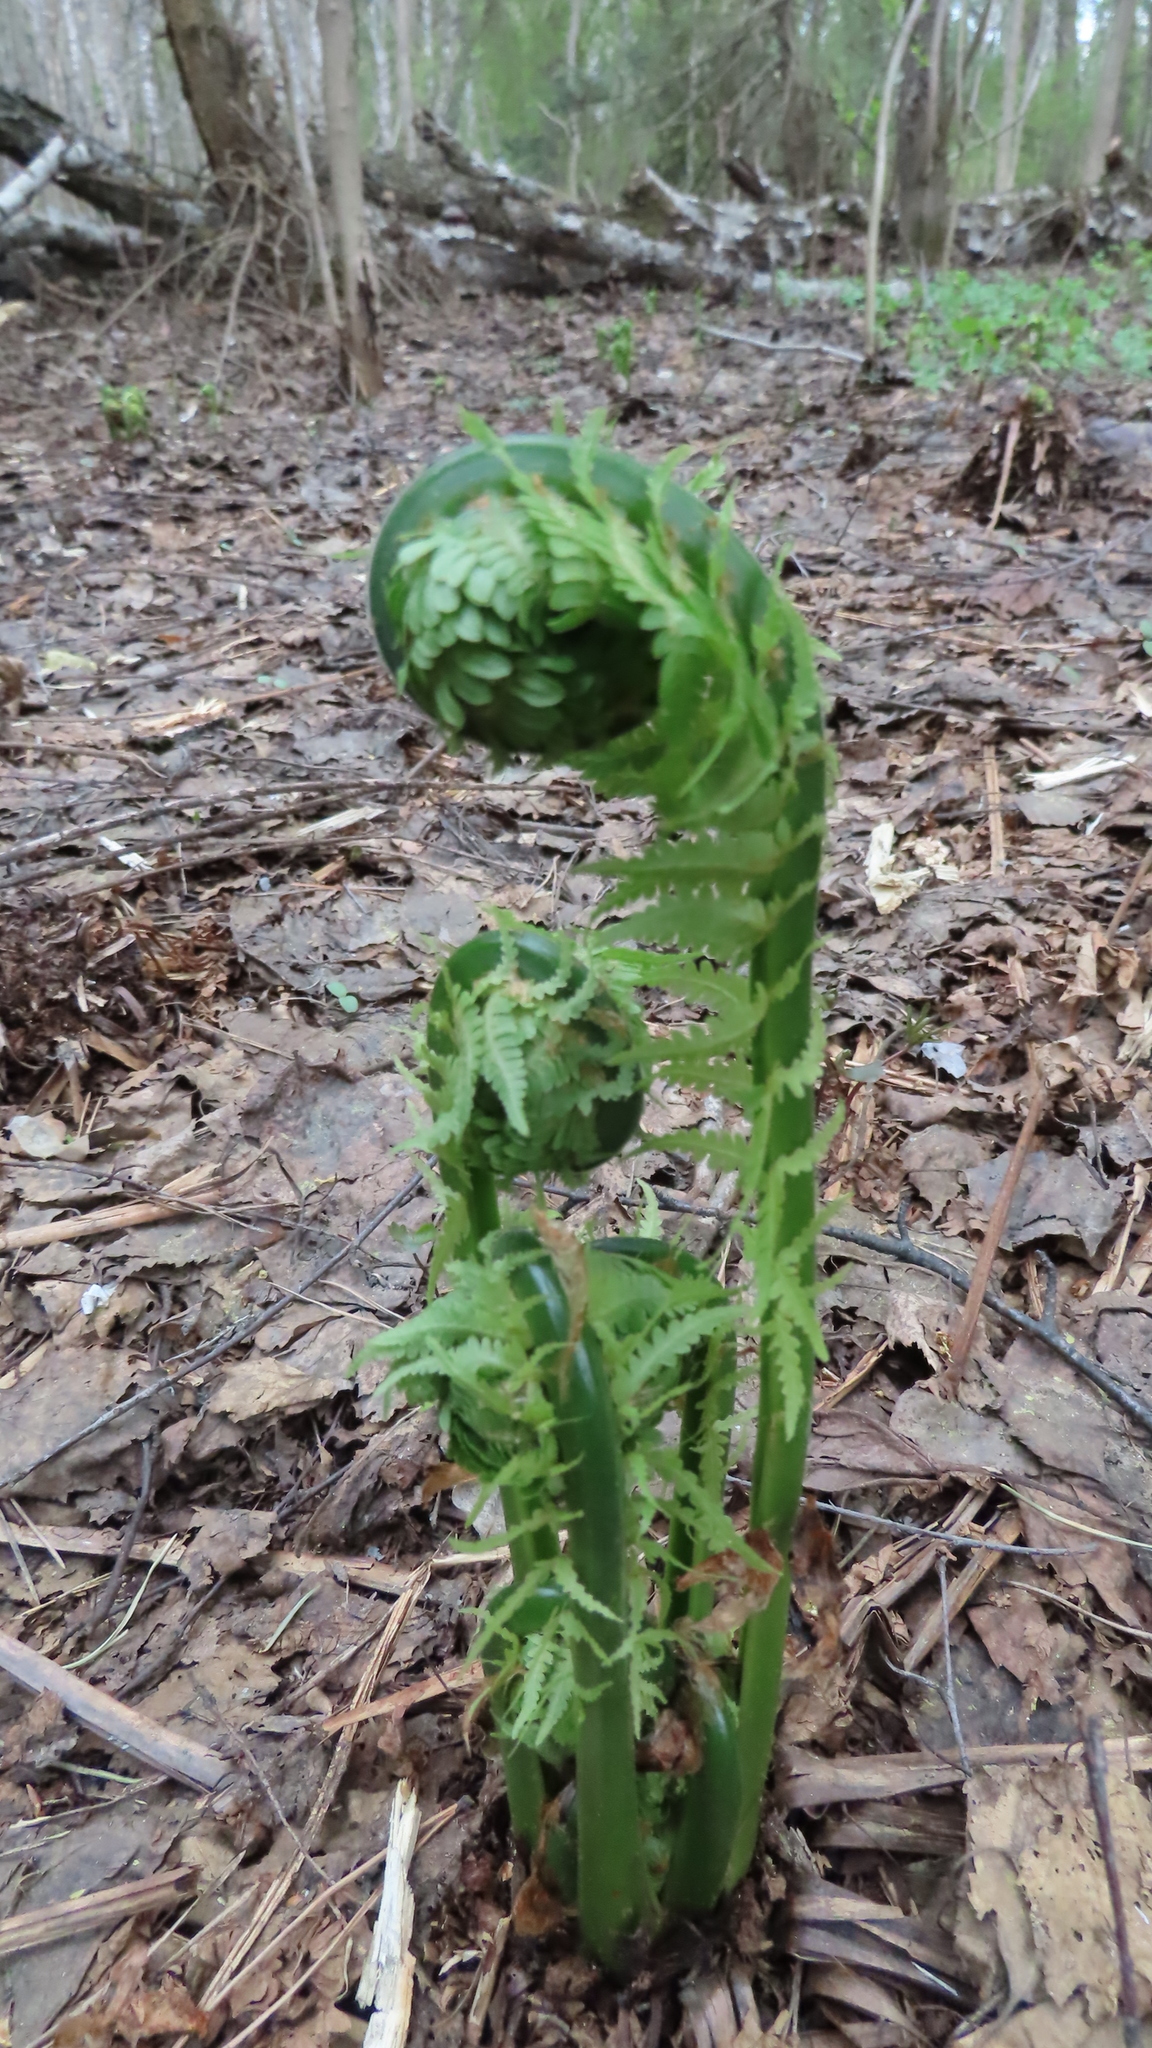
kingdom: Plantae
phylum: Tracheophyta
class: Polypodiopsida
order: Polypodiales
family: Onocleaceae
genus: Matteuccia
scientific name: Matteuccia struthiopteris
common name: Ostrich fern
